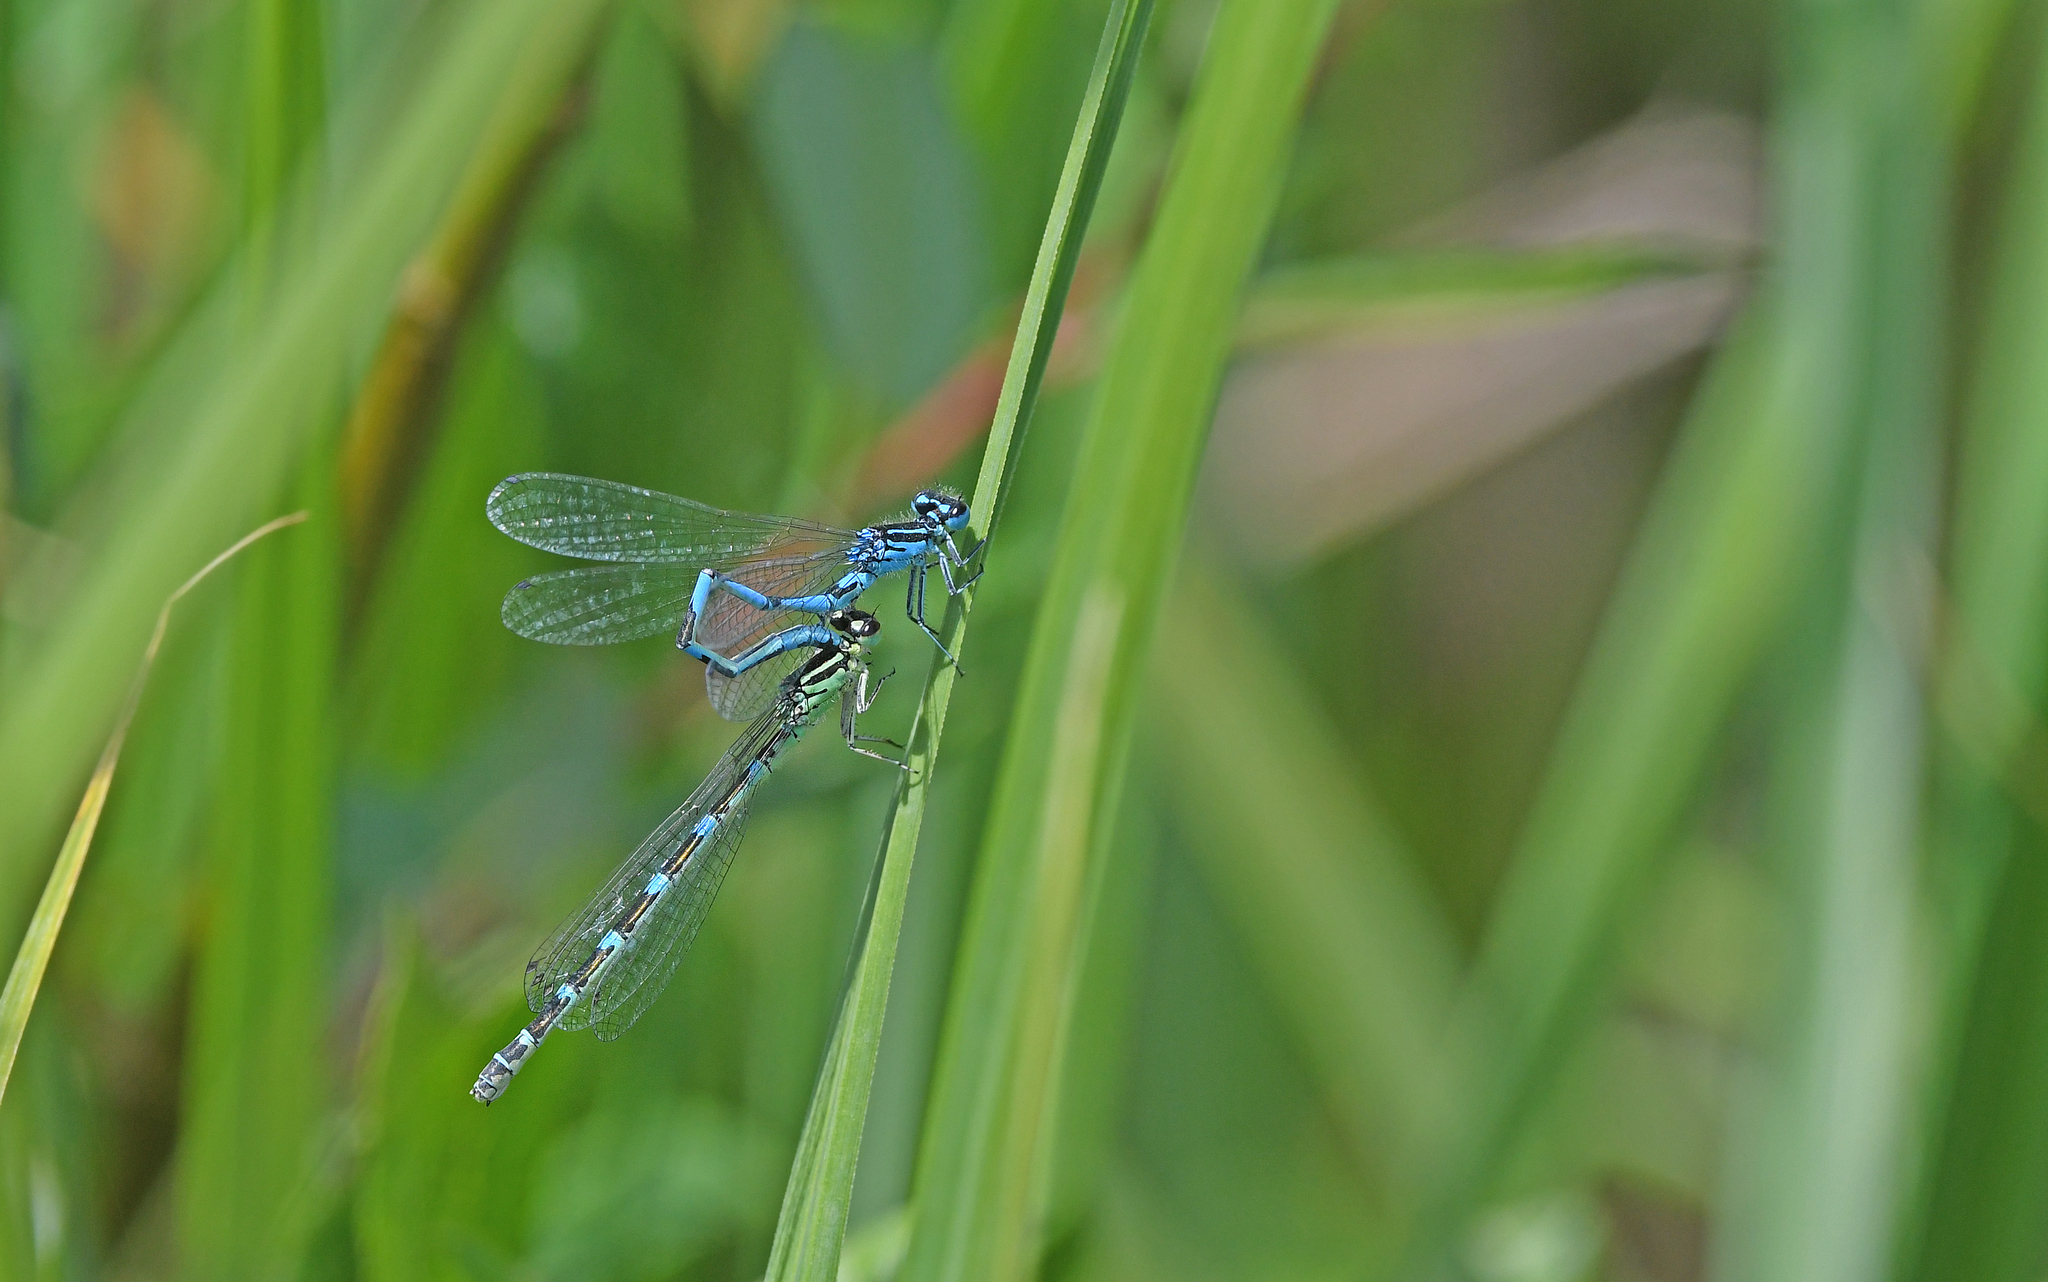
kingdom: Animalia
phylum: Arthropoda
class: Insecta
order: Odonata
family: Coenagrionidae
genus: Coenagrion
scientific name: Coenagrion ornatum
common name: Ornate bluet
